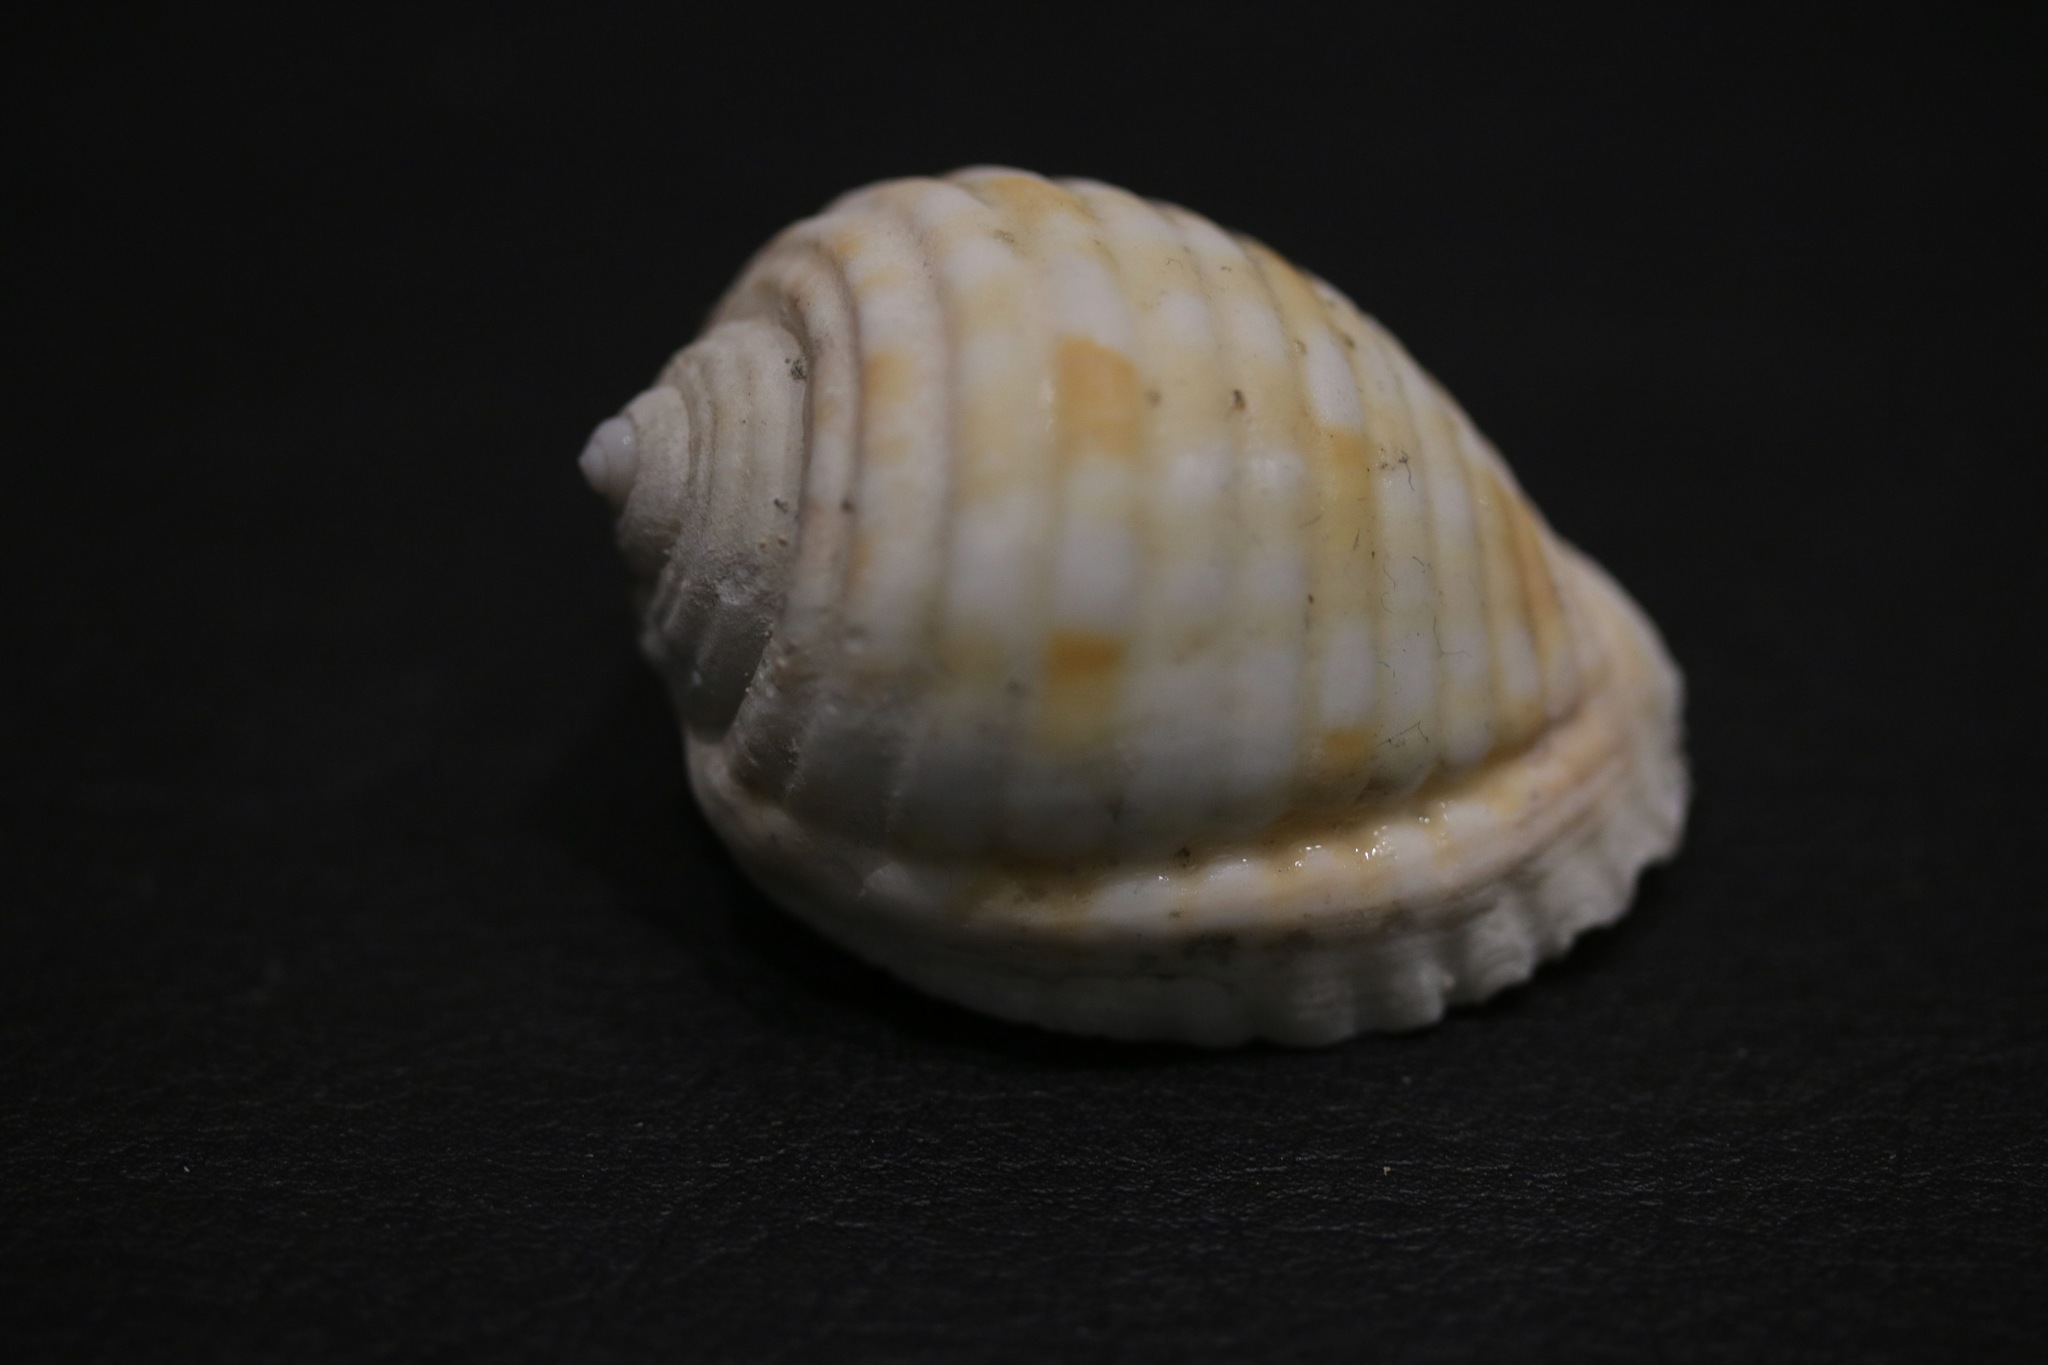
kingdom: Animalia
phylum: Mollusca
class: Gastropoda
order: Littorinimorpha
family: Tonnidae
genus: Malea
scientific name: Malea pomum
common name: Pacific grinning tun
